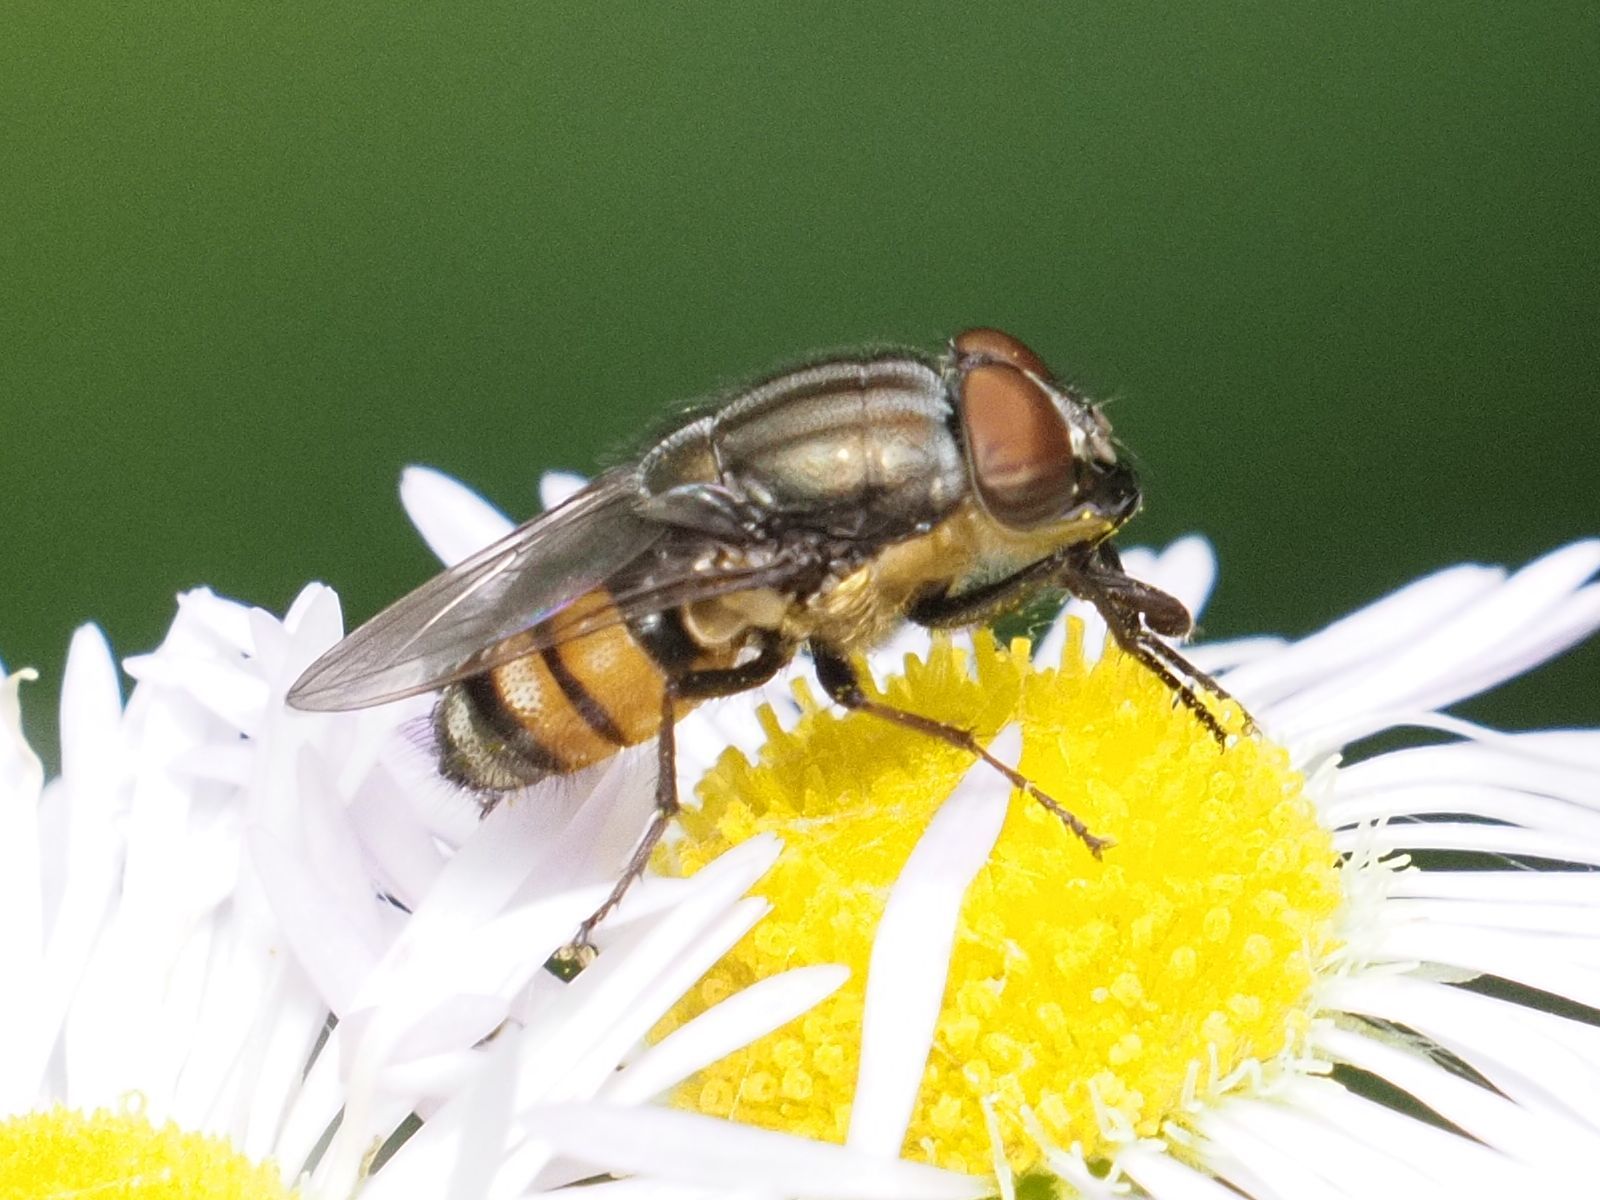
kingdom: Animalia
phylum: Arthropoda
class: Insecta
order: Diptera
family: Calliphoridae
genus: Stomorhina
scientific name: Stomorhina lunata
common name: Locust blowfly
